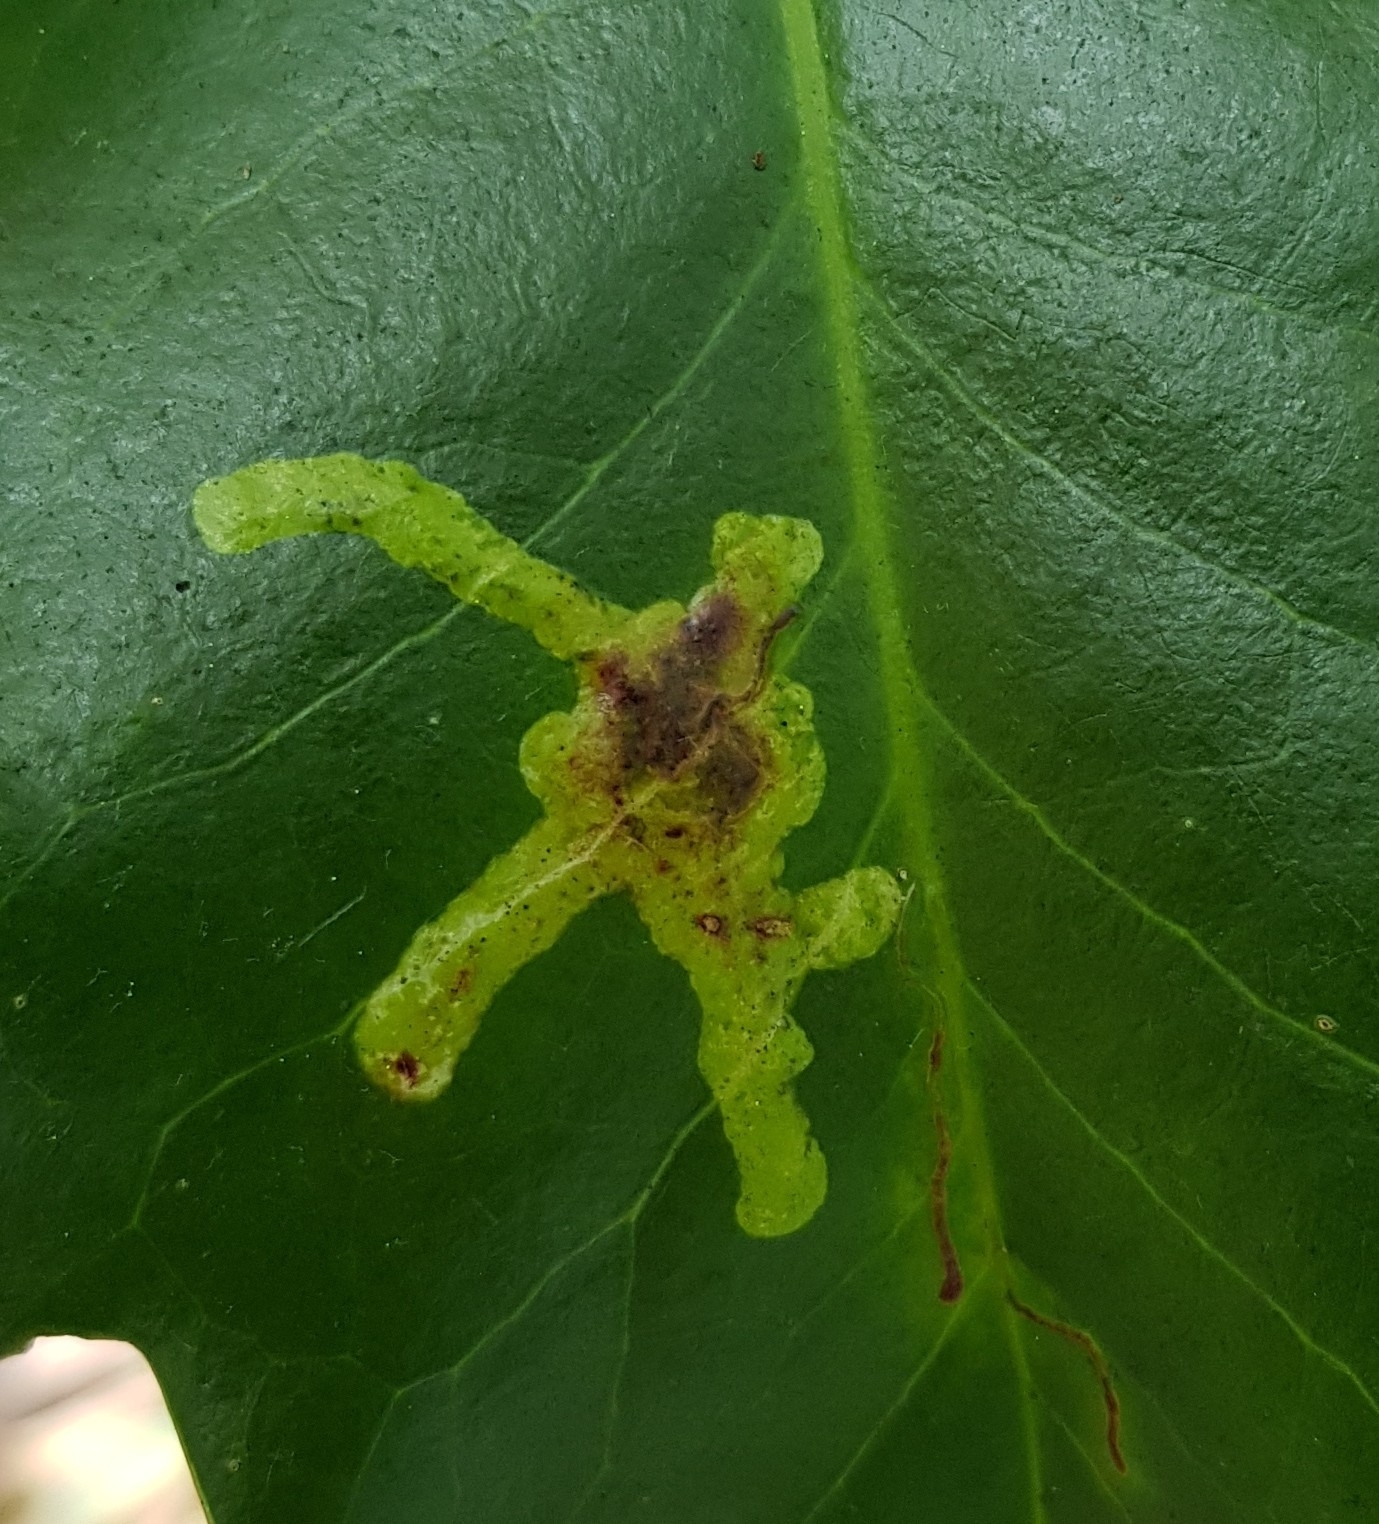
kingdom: Animalia
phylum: Arthropoda
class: Insecta
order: Diptera
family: Agromyzidae
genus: Phytomyza
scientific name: Phytomyza ilicis
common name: Holly leafminer
